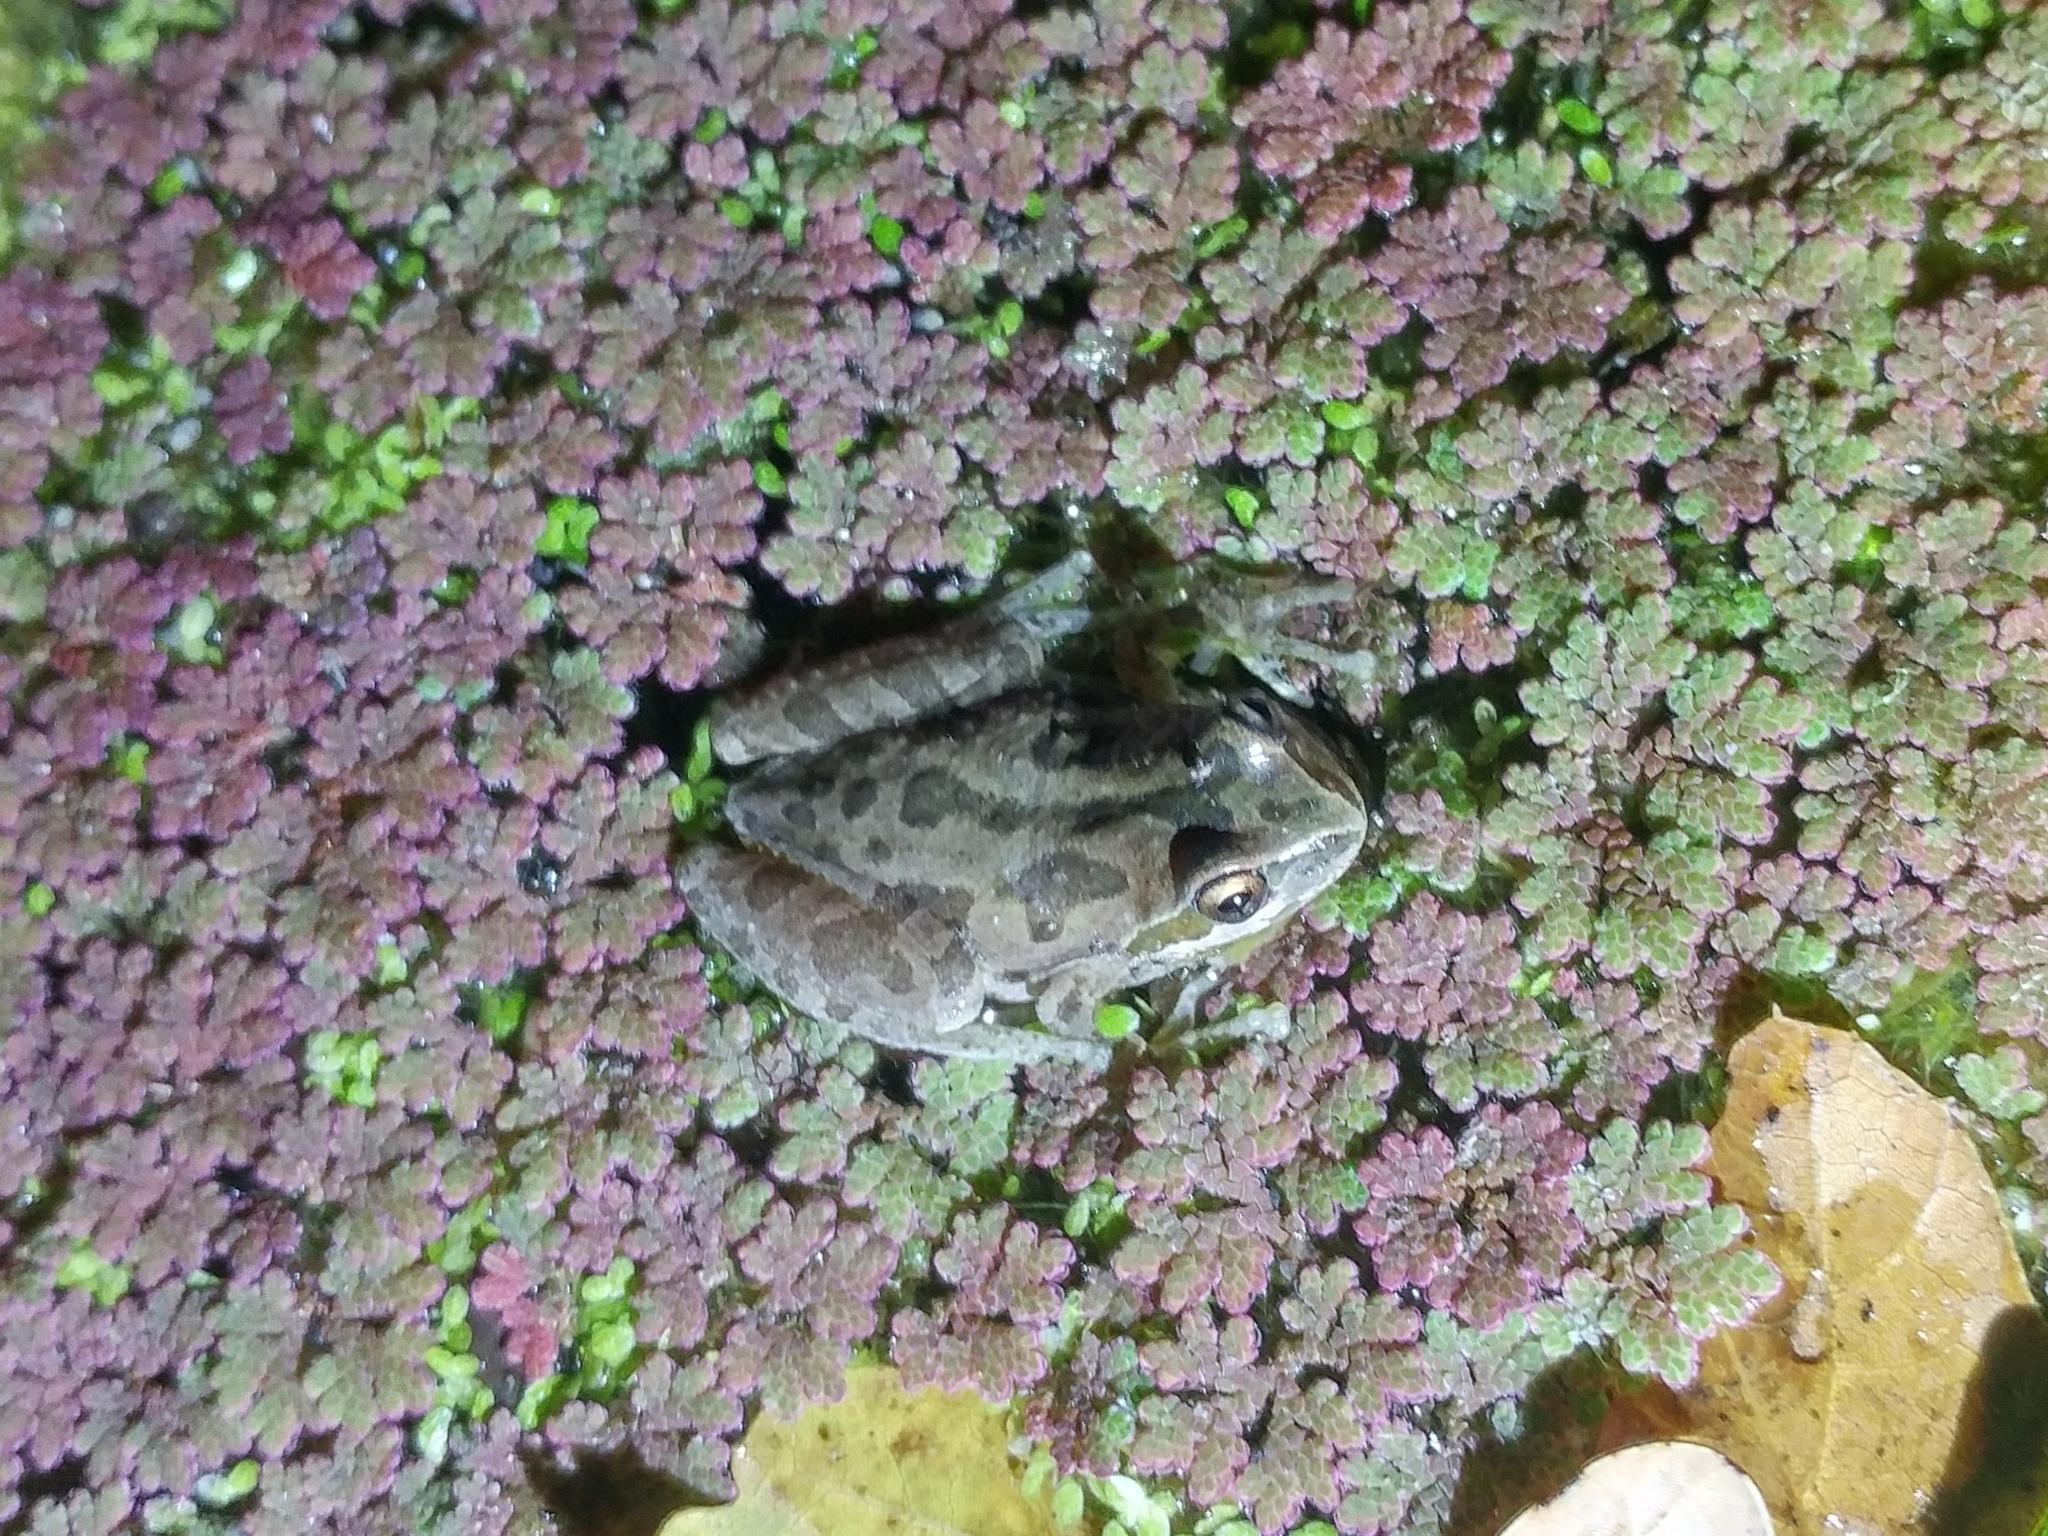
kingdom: Animalia
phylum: Chordata
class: Amphibia
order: Anura
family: Hylidae
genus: Pseudacris
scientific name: Pseudacris regilla
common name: Pacific chorus frog
